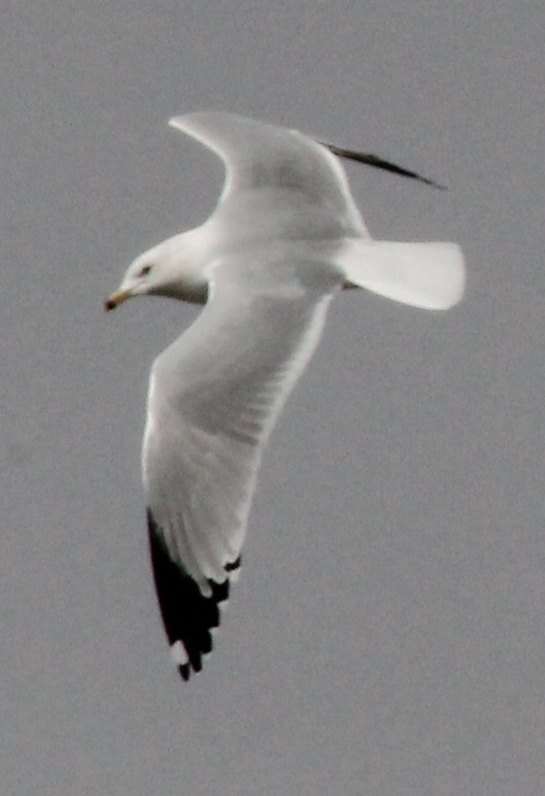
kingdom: Animalia
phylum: Chordata
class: Aves
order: Charadriiformes
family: Laridae
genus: Larus
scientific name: Larus delawarensis
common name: Ring-billed gull
